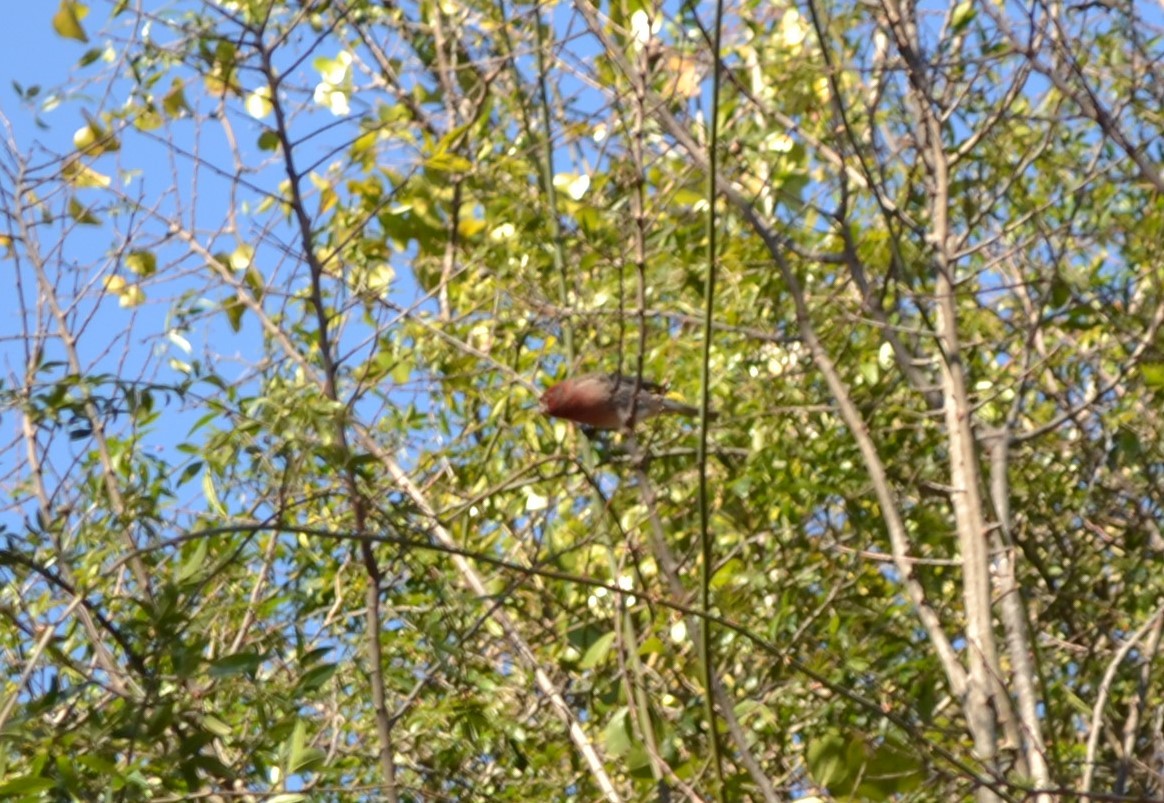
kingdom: Animalia
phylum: Chordata
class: Aves
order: Passeriformes
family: Fringillidae
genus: Haemorhous
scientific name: Haemorhous mexicanus
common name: House finch
